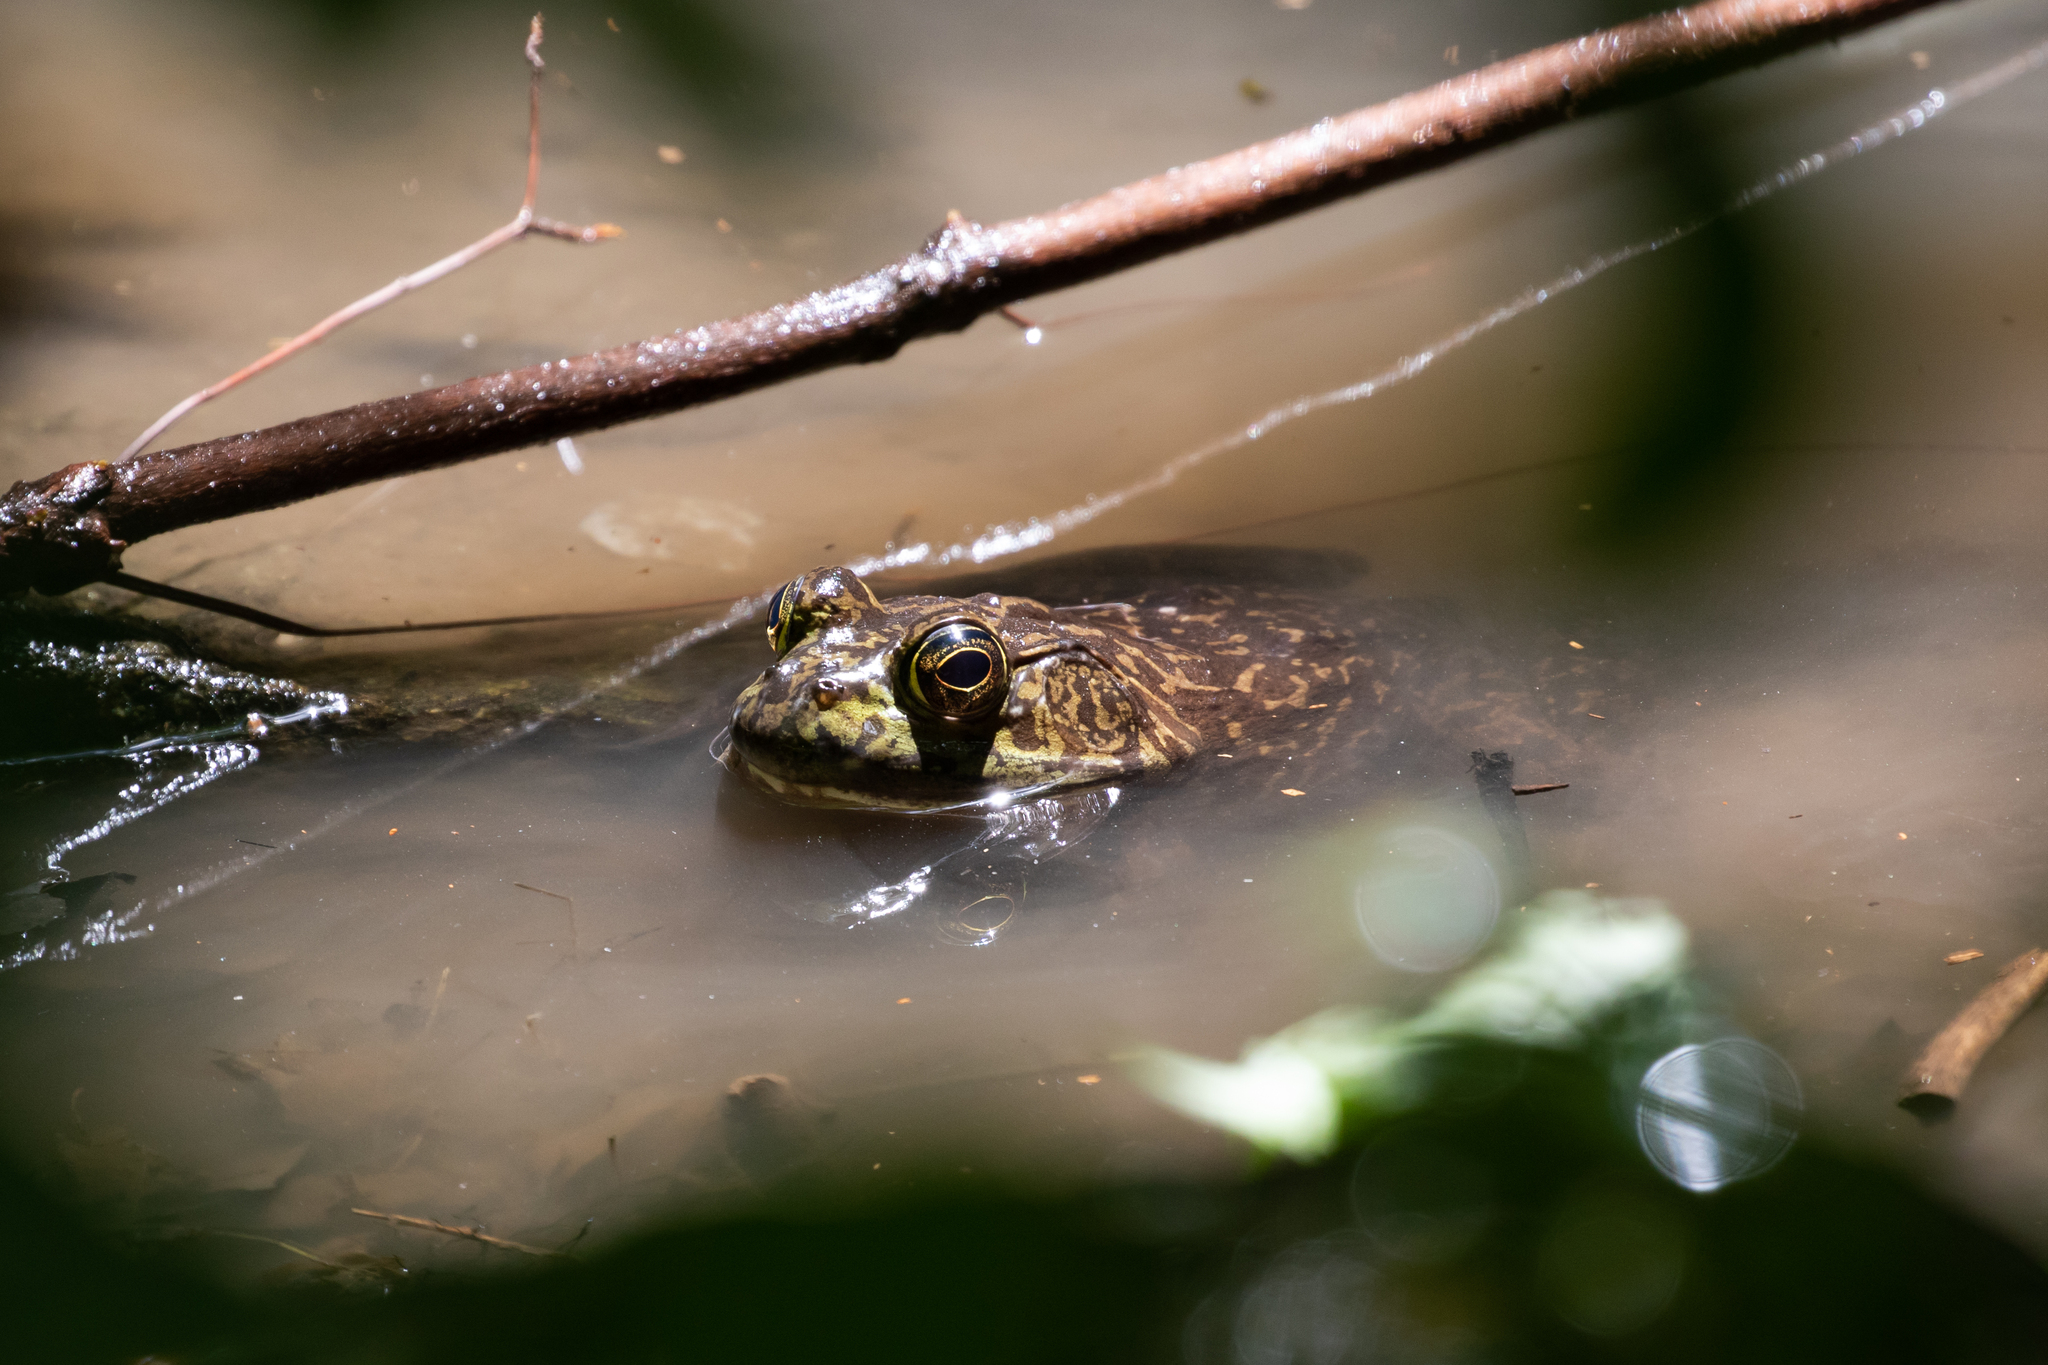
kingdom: Animalia
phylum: Chordata
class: Amphibia
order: Anura
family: Ranidae
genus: Lithobates
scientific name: Lithobates catesbeianus
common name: American bullfrog
